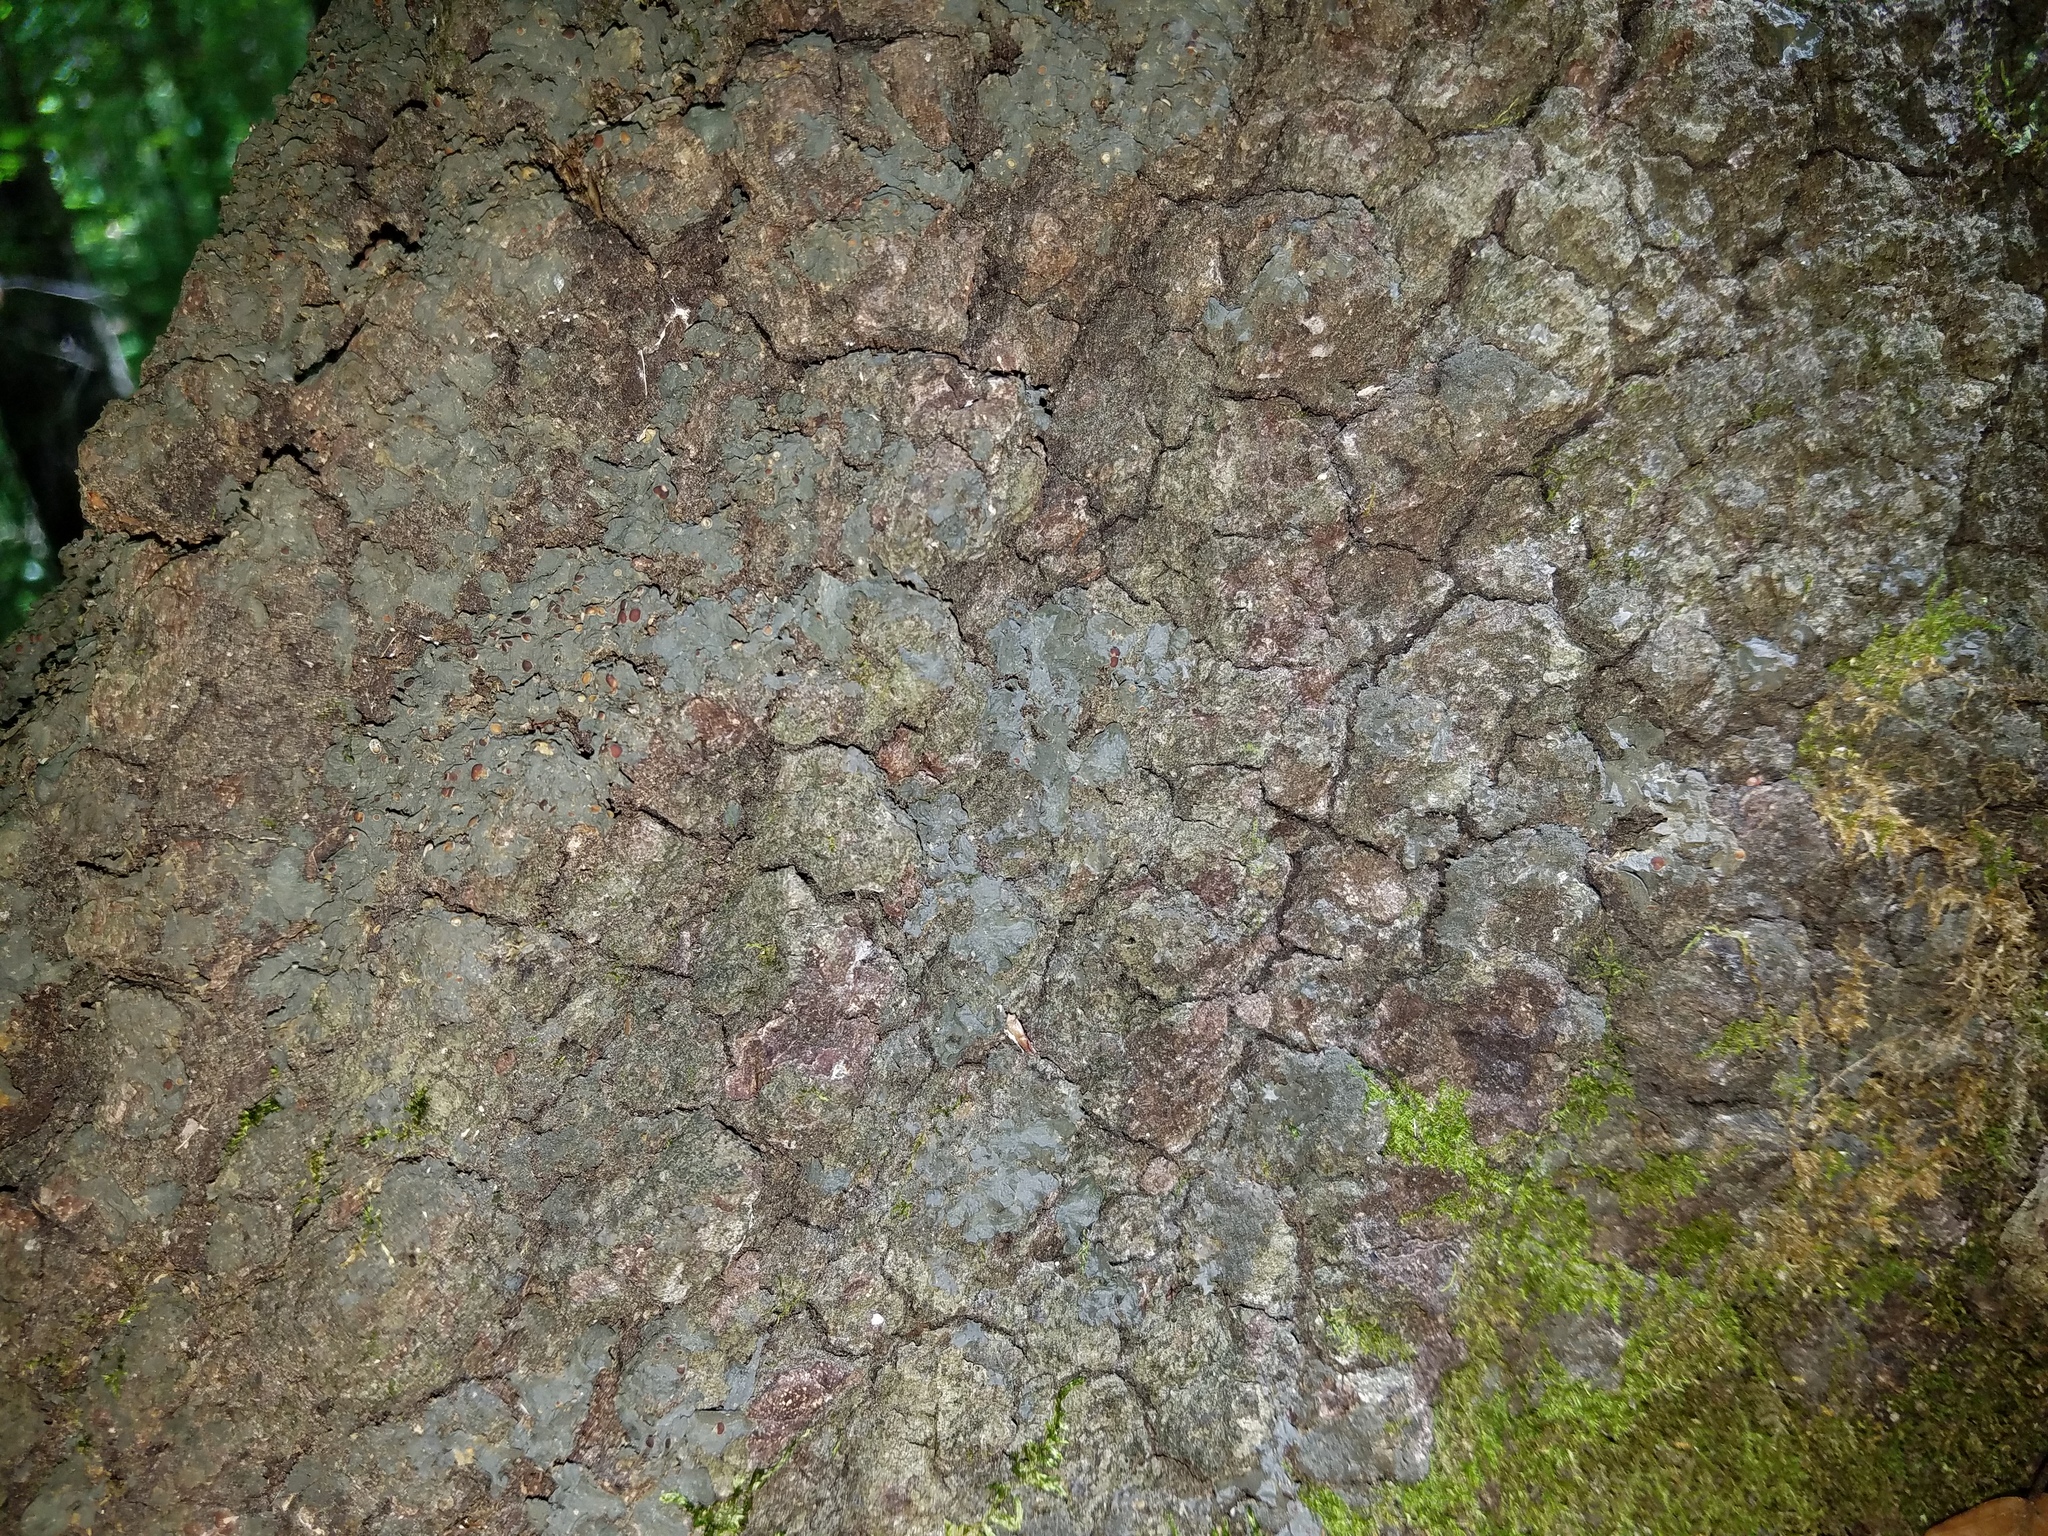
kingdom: Fungi
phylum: Ascomycota
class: Lecanoromycetes
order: Peltigerales
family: Collemataceae
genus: Leptogium
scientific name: Leptogium corticola
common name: Blistered jellyskin lichen
